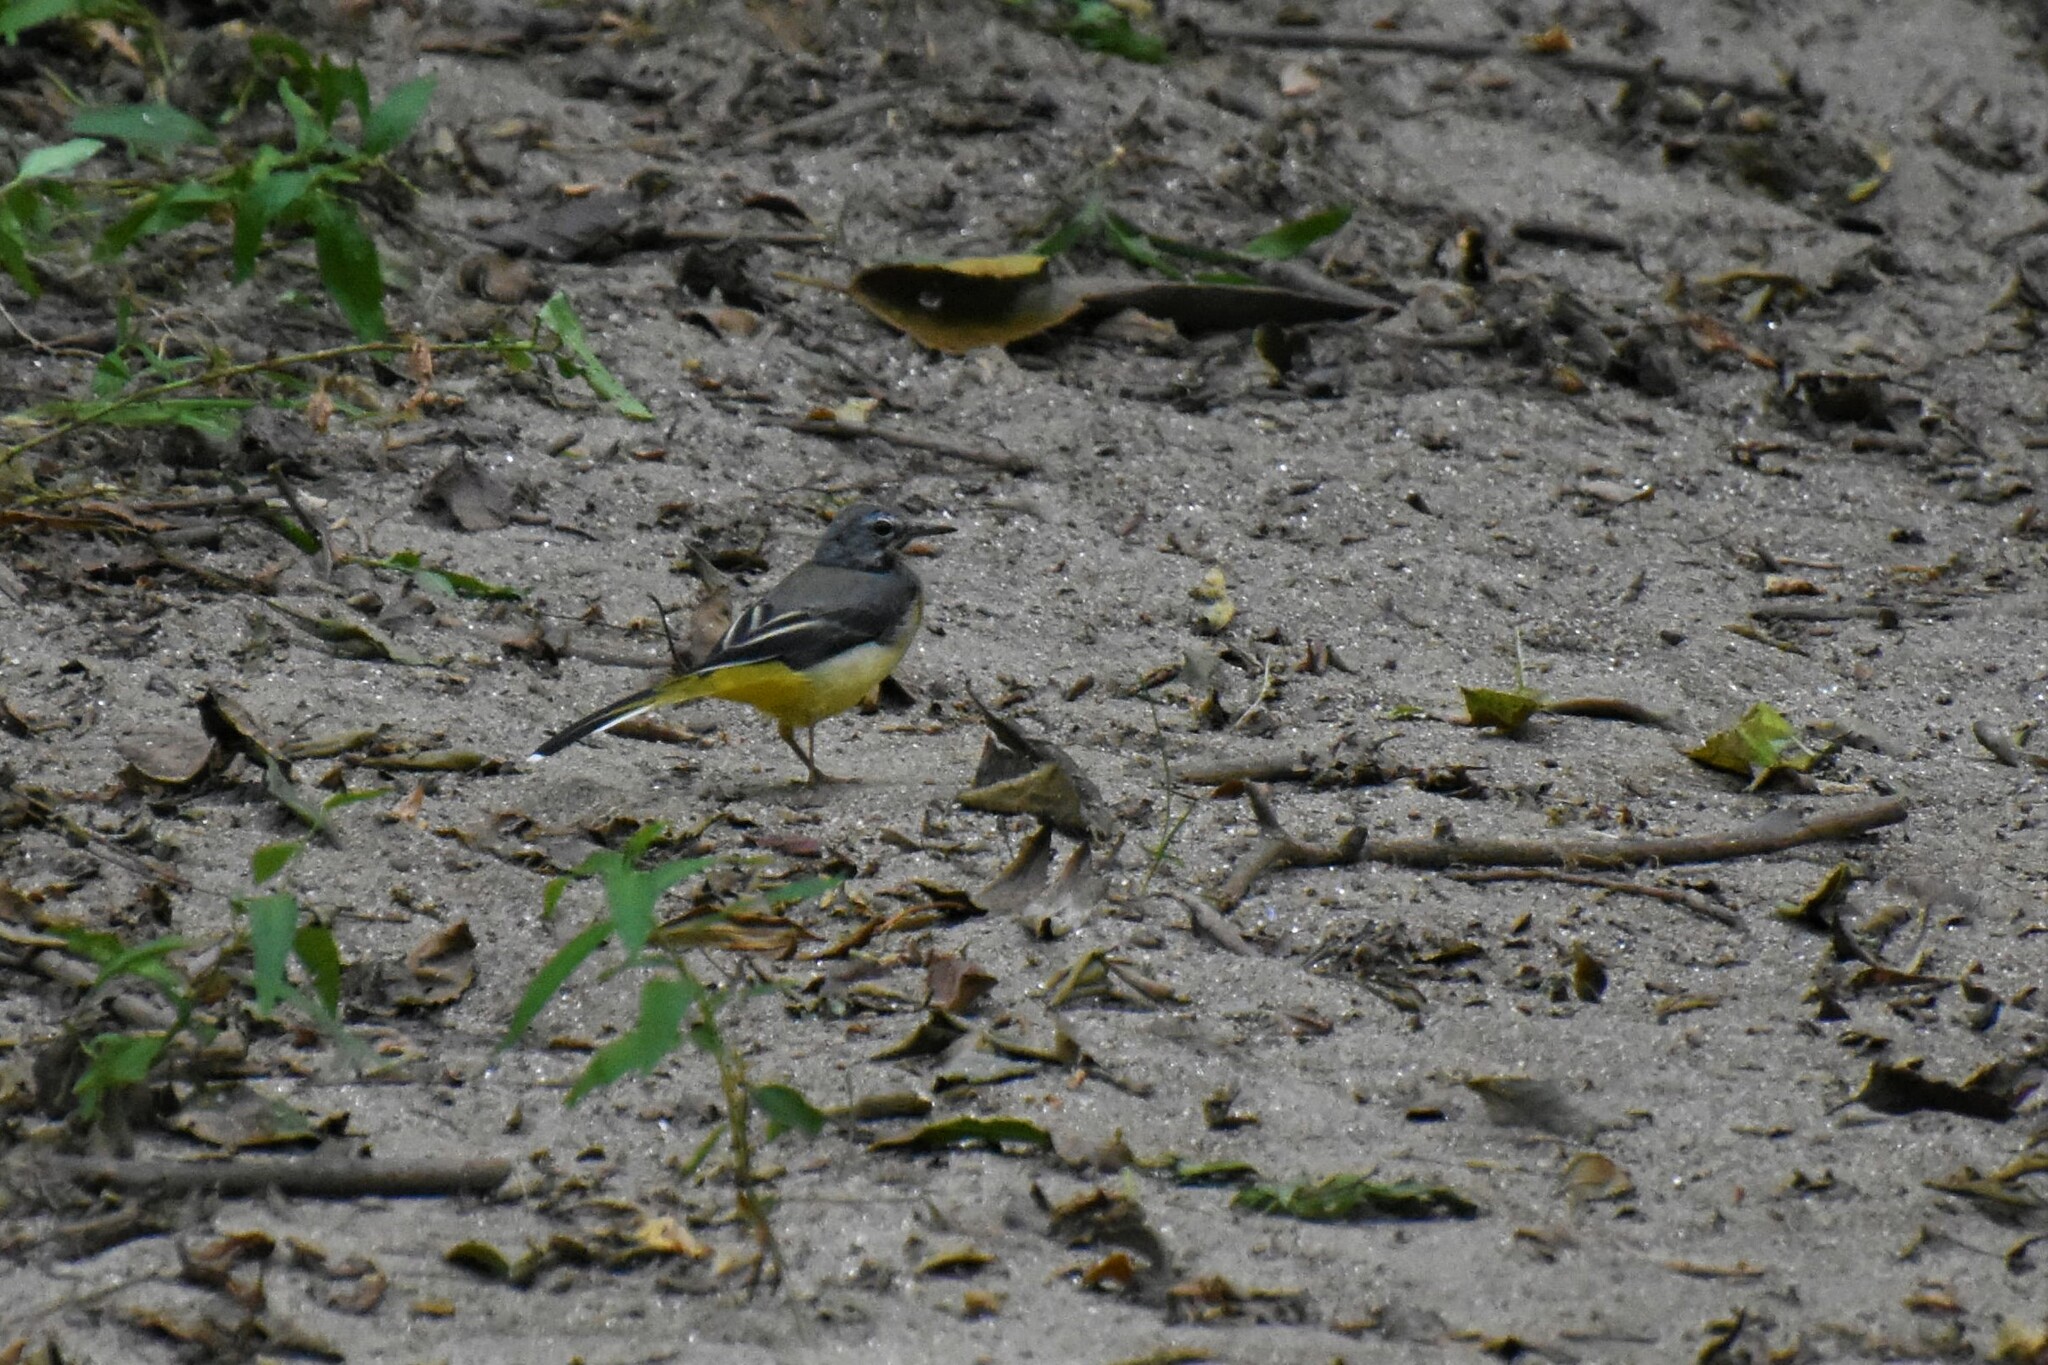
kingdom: Animalia
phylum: Chordata
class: Aves
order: Passeriformes
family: Motacillidae
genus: Motacilla
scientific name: Motacilla cinerea
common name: Grey wagtail
